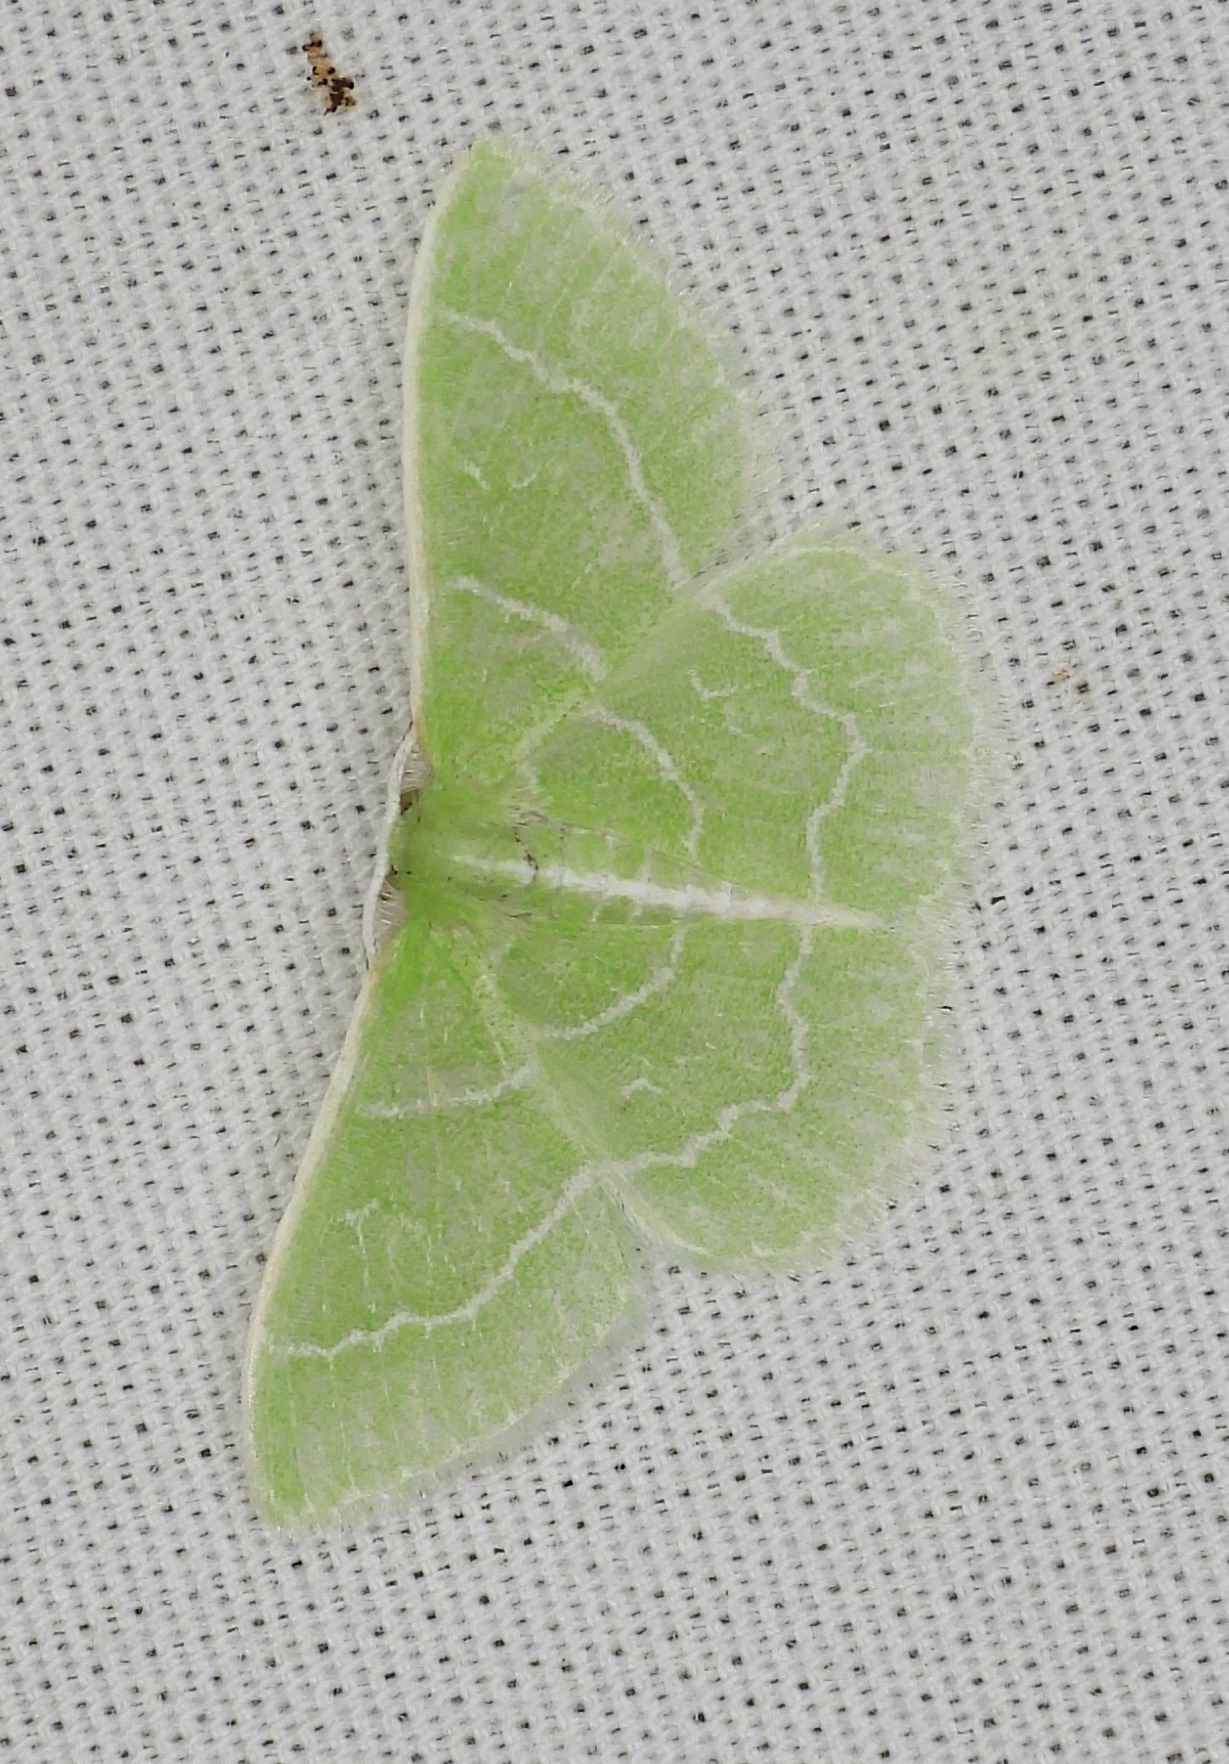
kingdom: Animalia
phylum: Arthropoda
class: Insecta
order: Lepidoptera
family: Geometridae
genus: Synchlora
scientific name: Synchlora aerata
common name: Wavy-lined emerald
